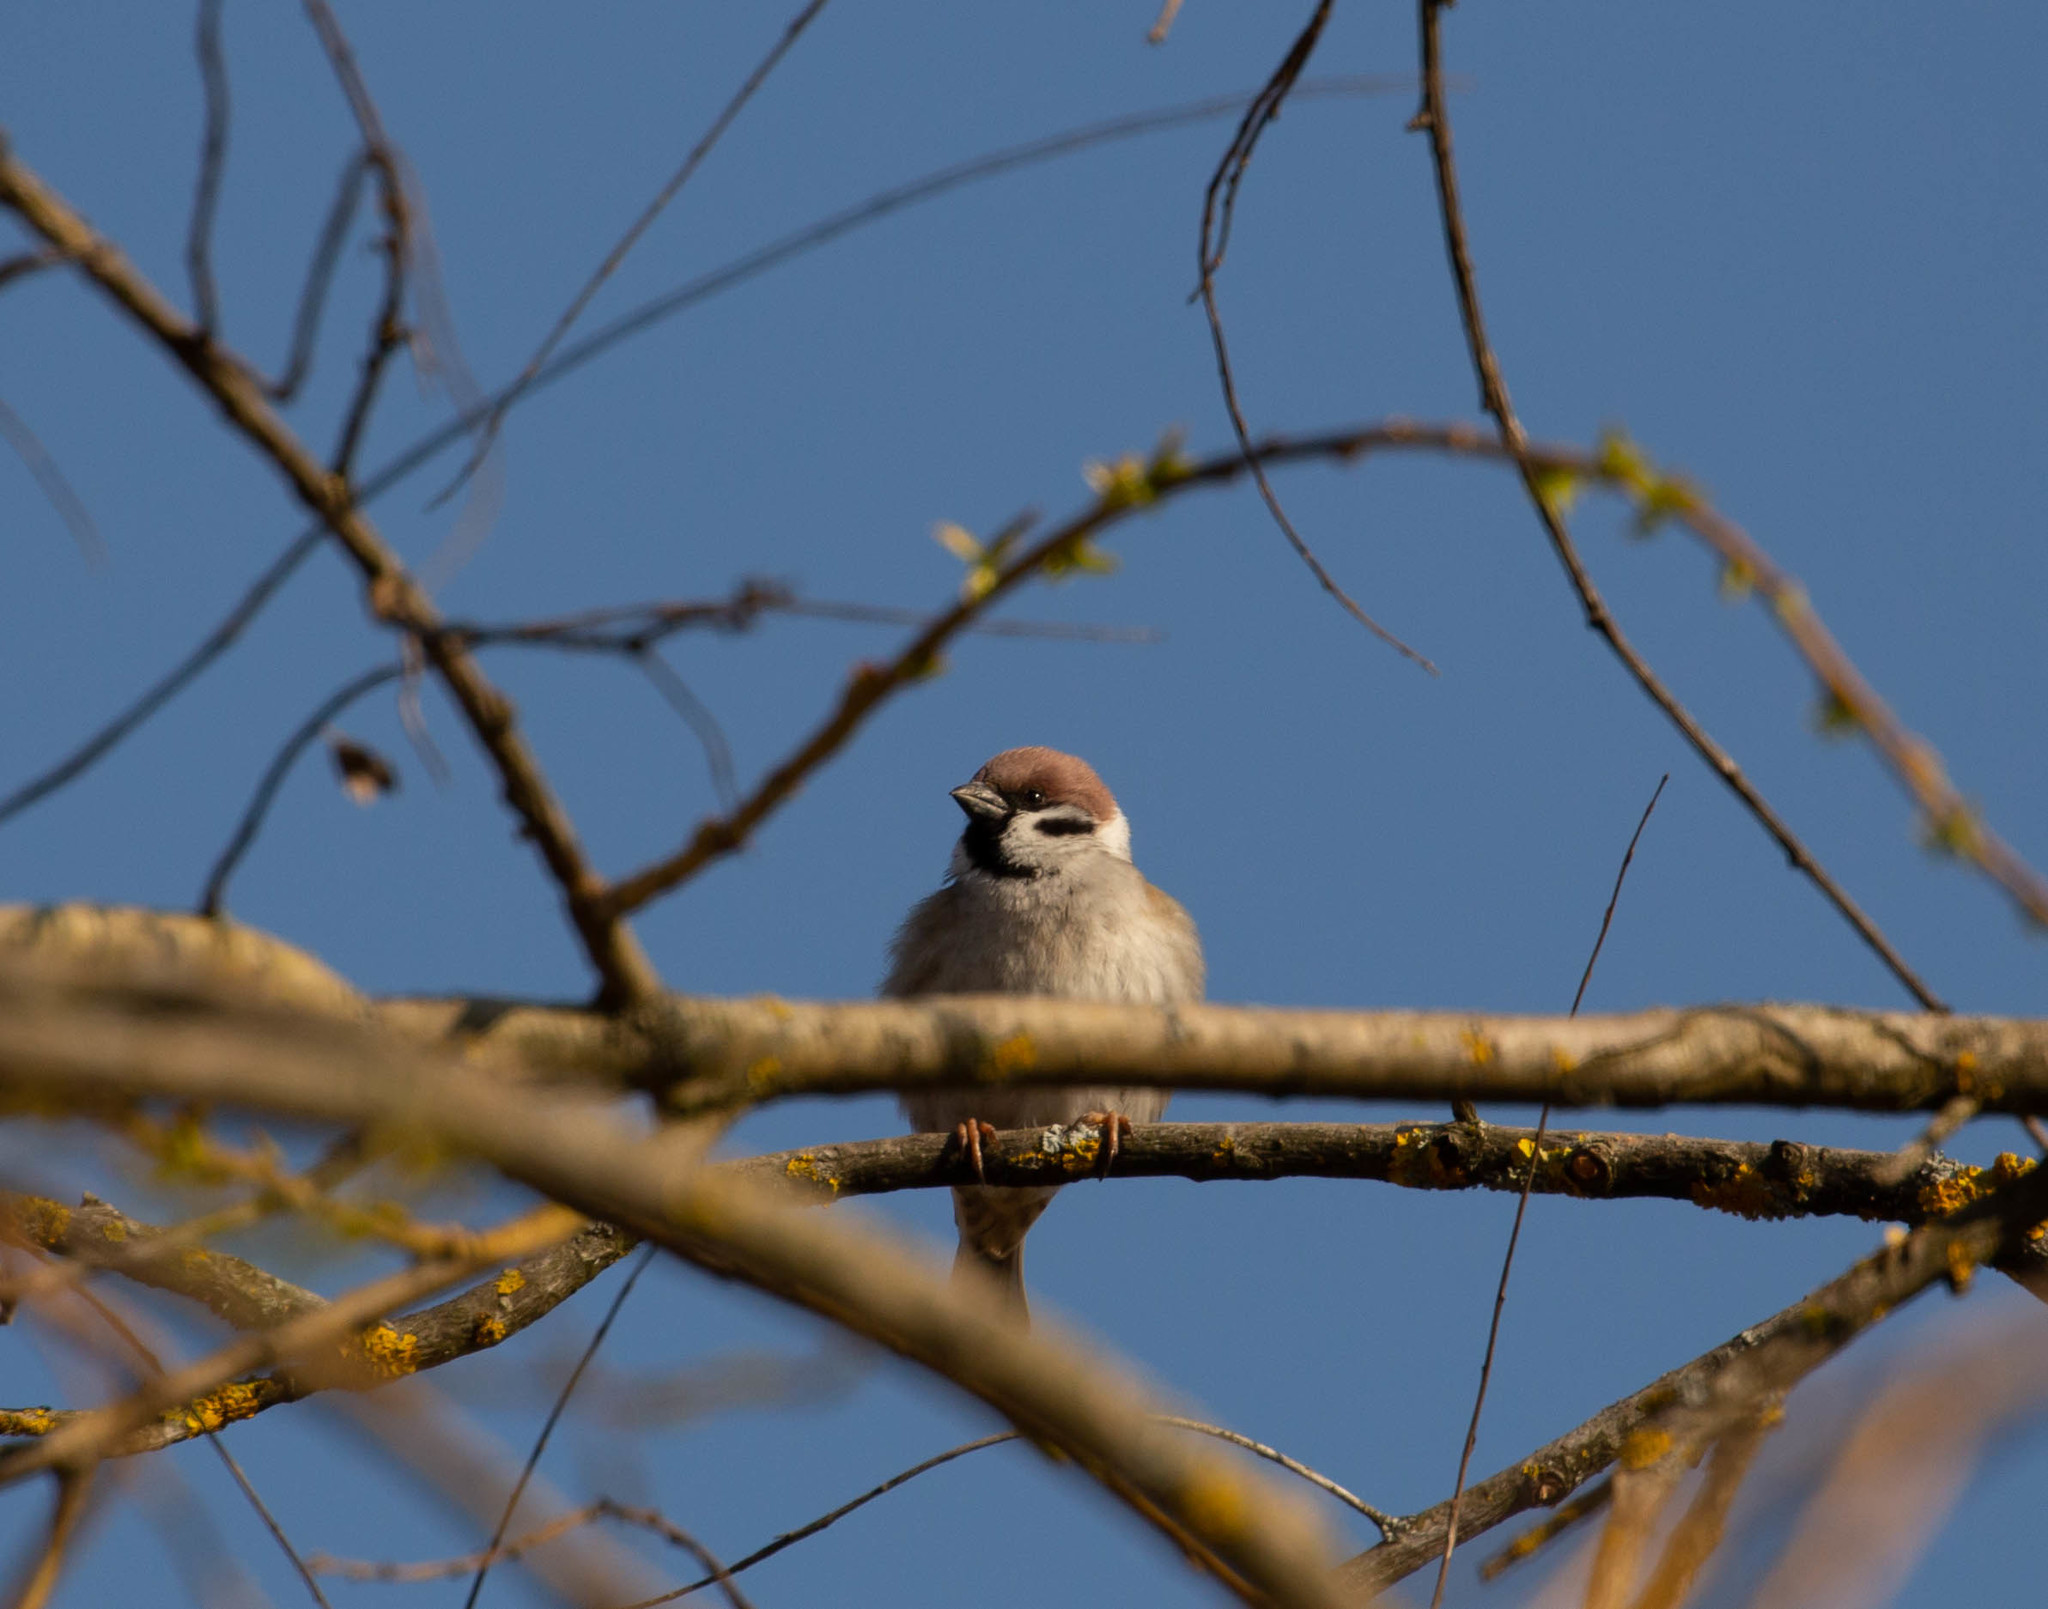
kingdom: Animalia
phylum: Chordata
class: Aves
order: Passeriformes
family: Passeridae
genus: Passer
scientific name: Passer montanus
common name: Eurasian tree sparrow
